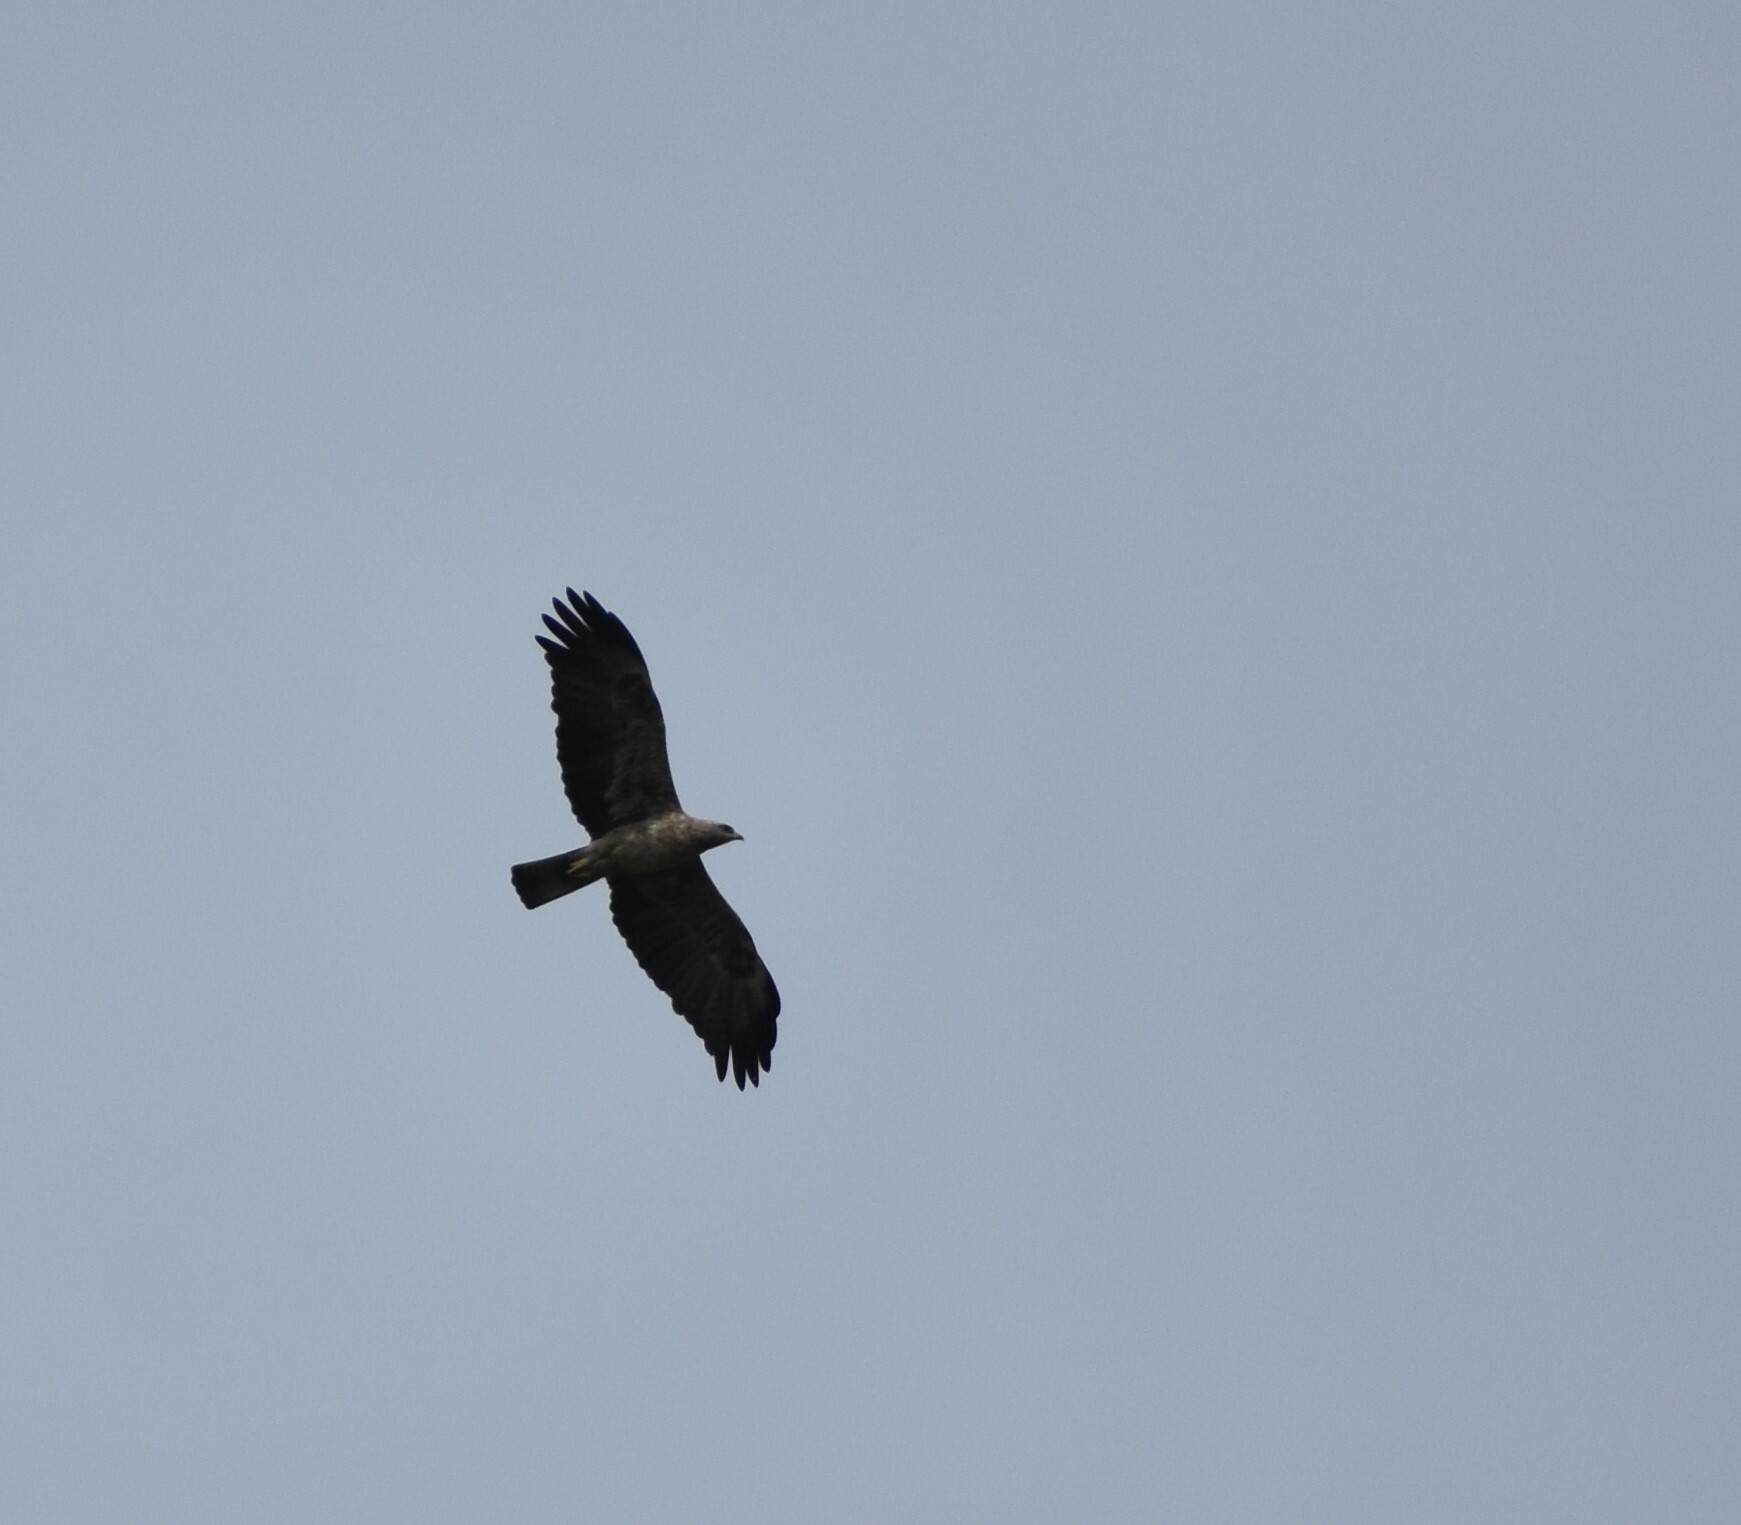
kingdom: Animalia
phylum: Chordata
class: Aves
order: Accipitriformes
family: Accipitridae
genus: Hieraaetus
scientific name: Hieraaetus wahlbergi
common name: Wahlberg's eagle
